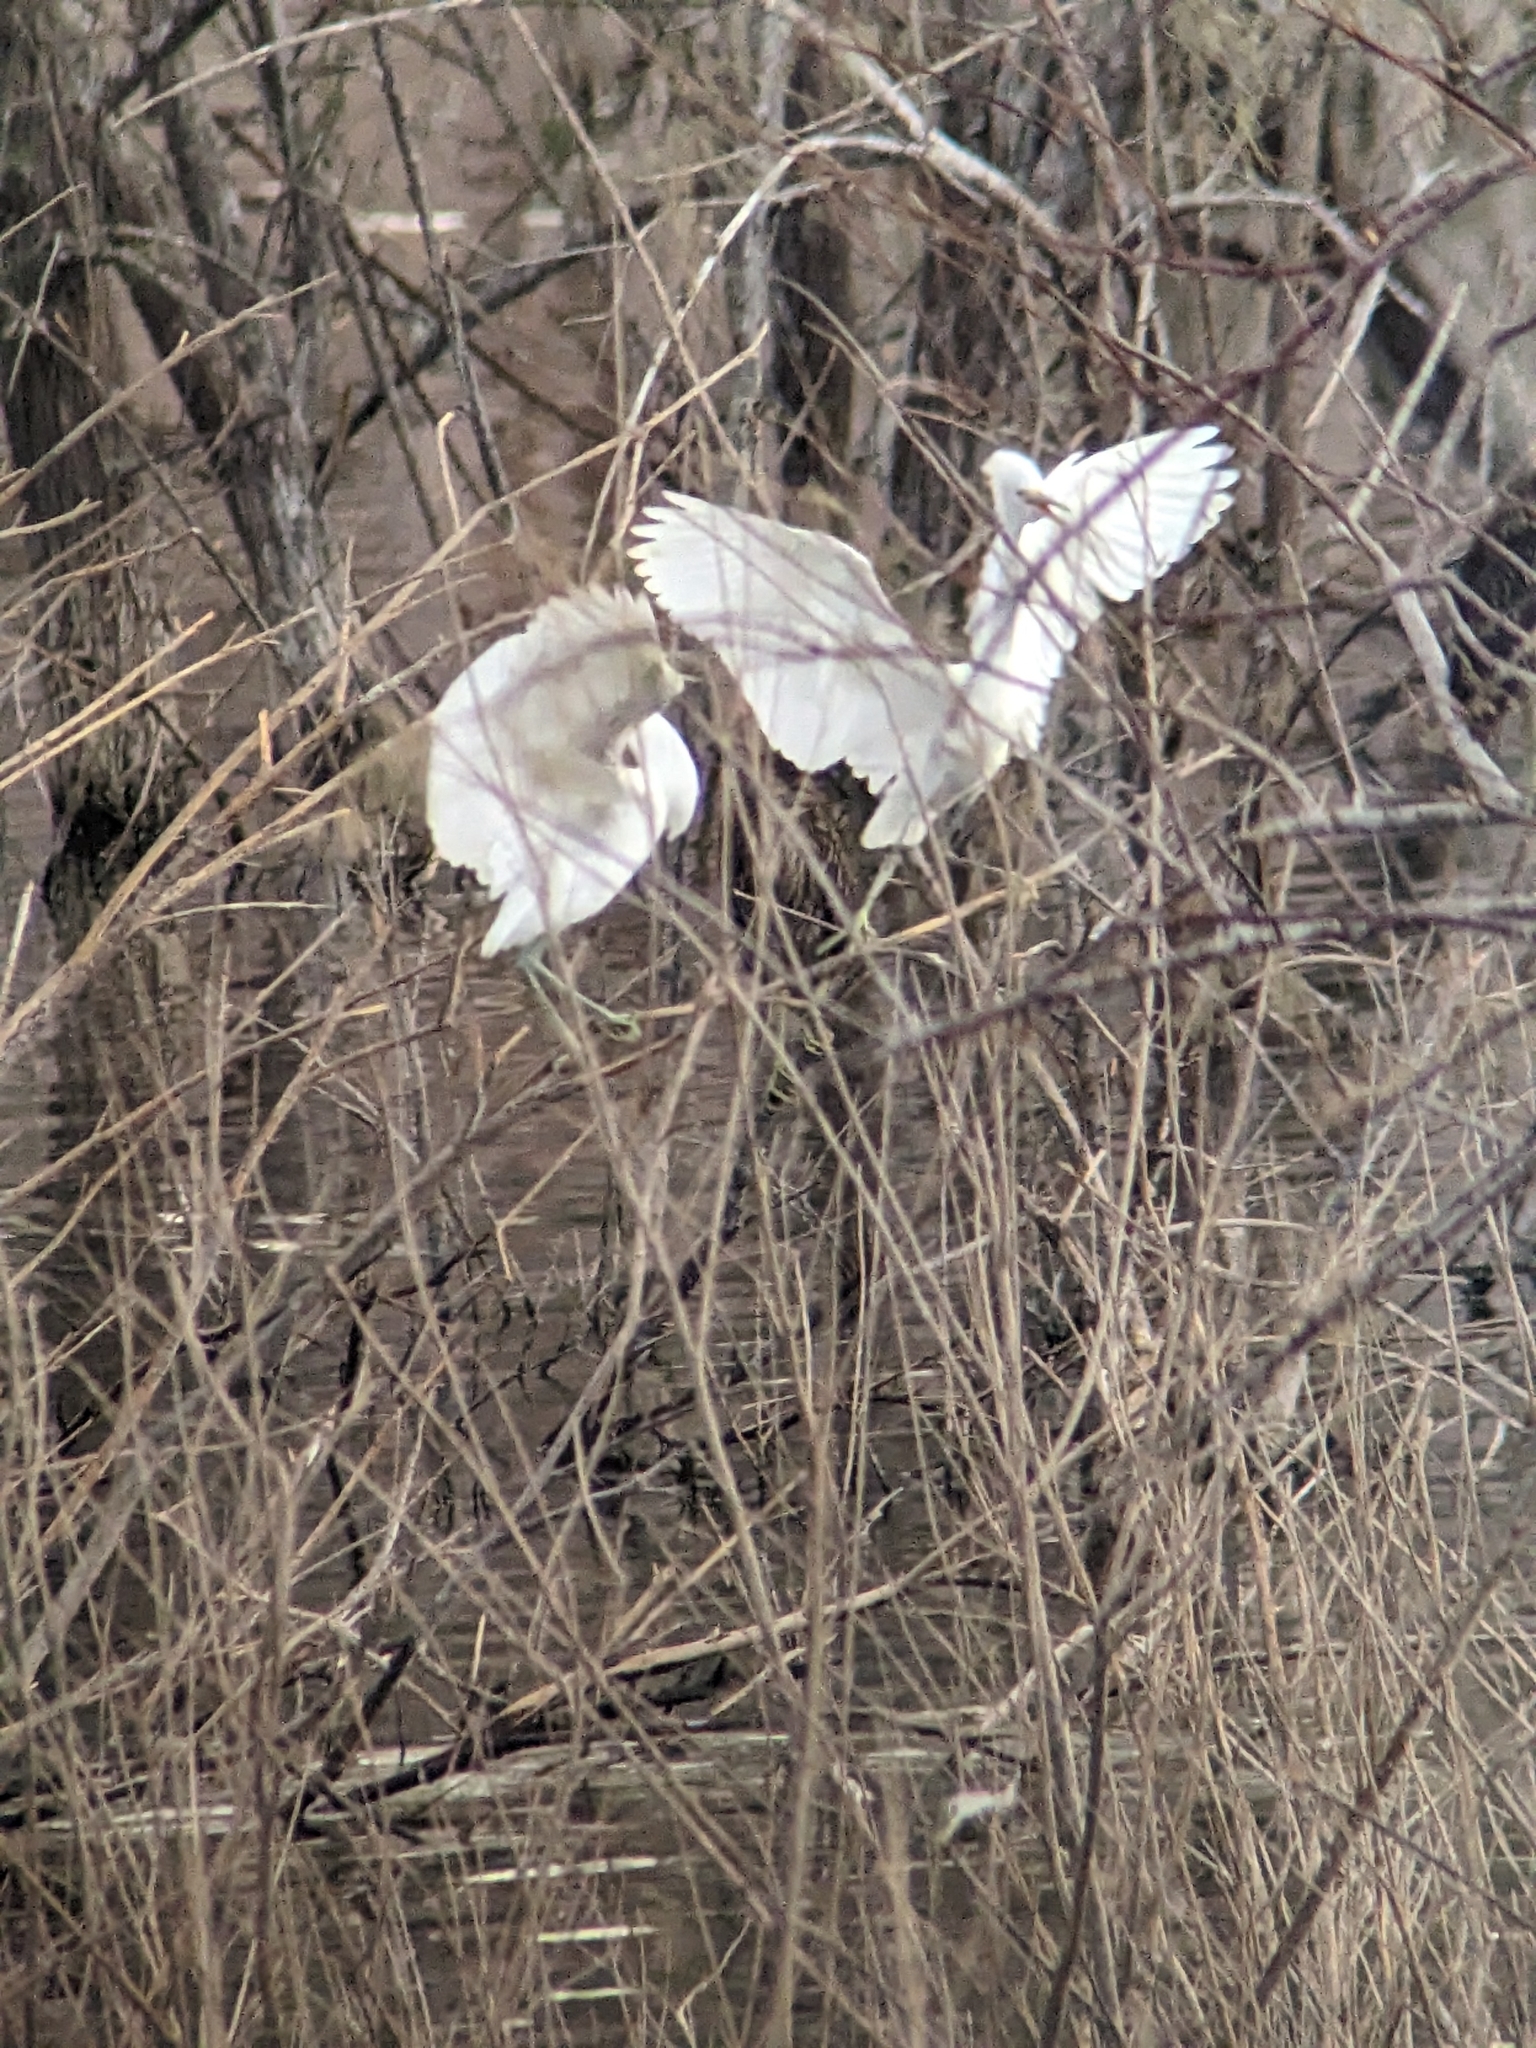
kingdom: Animalia
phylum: Chordata
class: Aves
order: Pelecaniformes
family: Ardeidae
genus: Egretta
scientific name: Egretta thula
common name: Snowy egret
